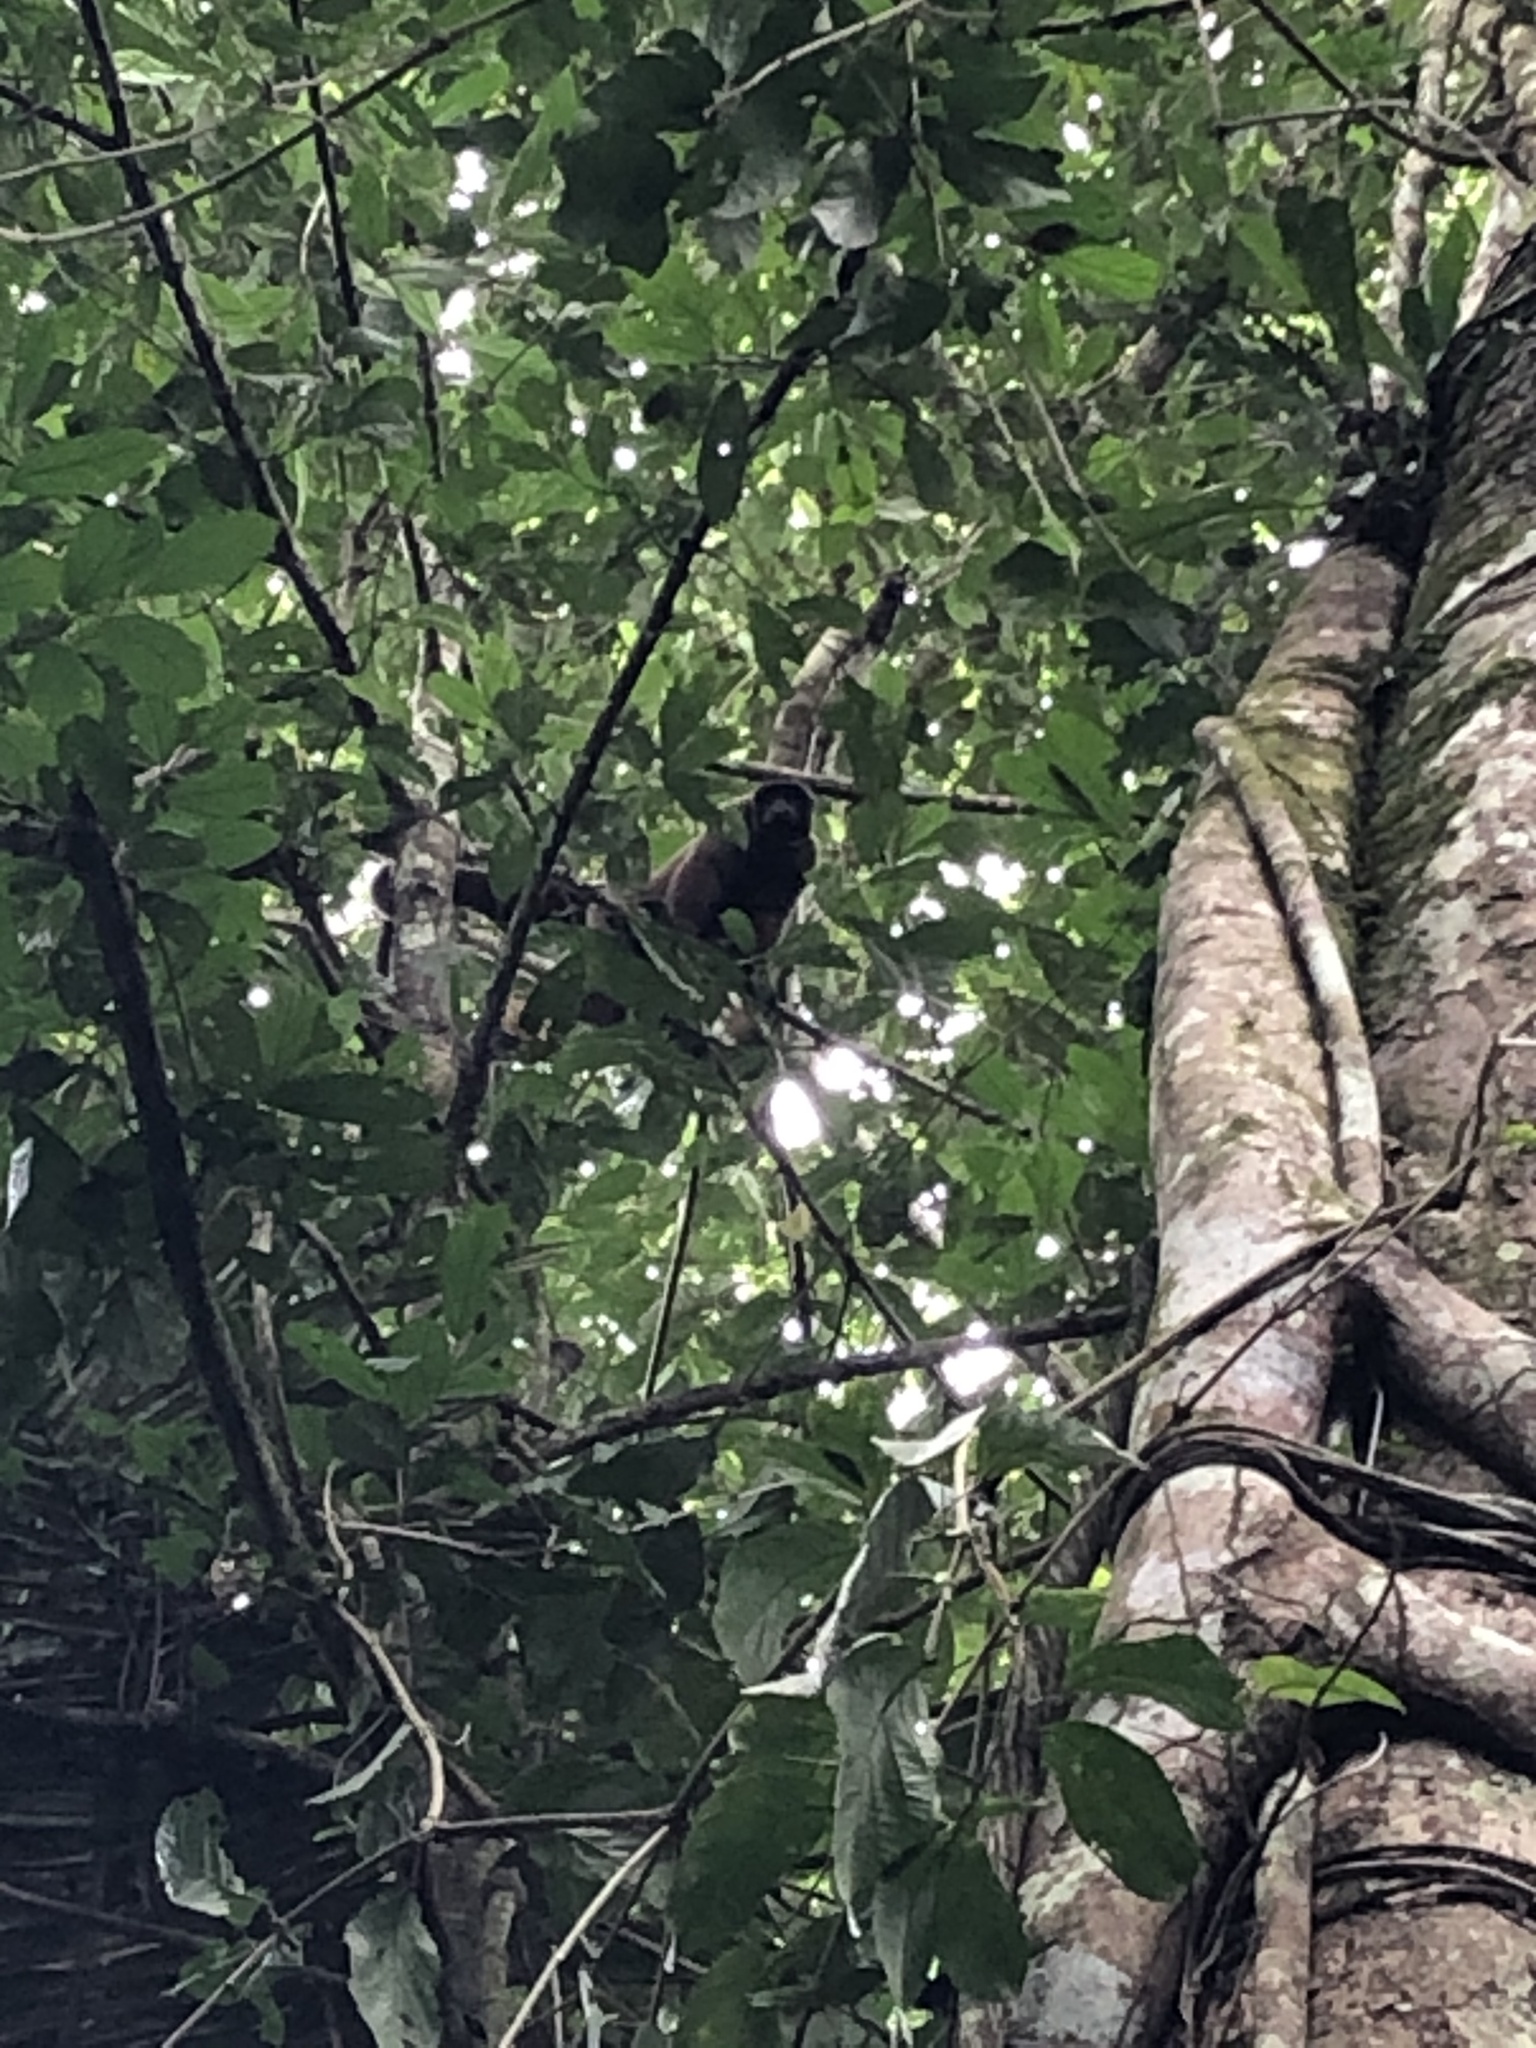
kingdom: Animalia
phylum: Chordata
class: Mammalia
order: Primates
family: Atelidae
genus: Lagothrix
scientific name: Lagothrix lagothricha
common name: Brown woolly monkey
